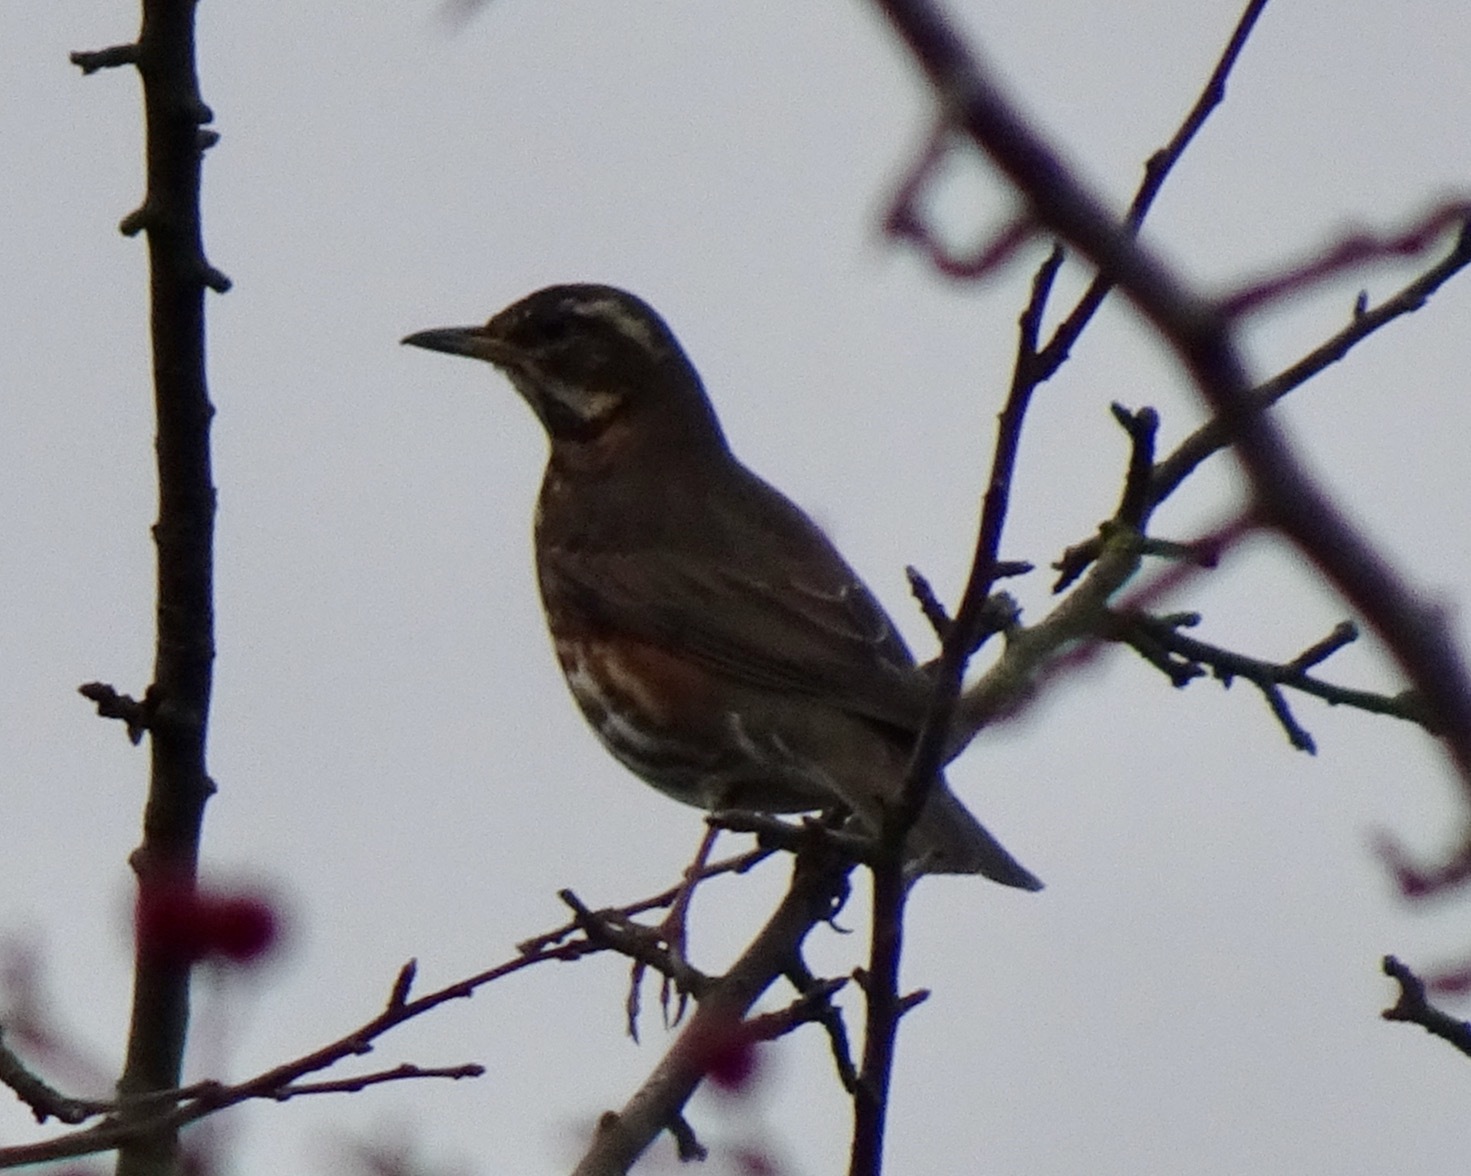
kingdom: Animalia
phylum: Chordata
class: Aves
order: Passeriformes
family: Turdidae
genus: Turdus
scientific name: Turdus iliacus
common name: Redwing
